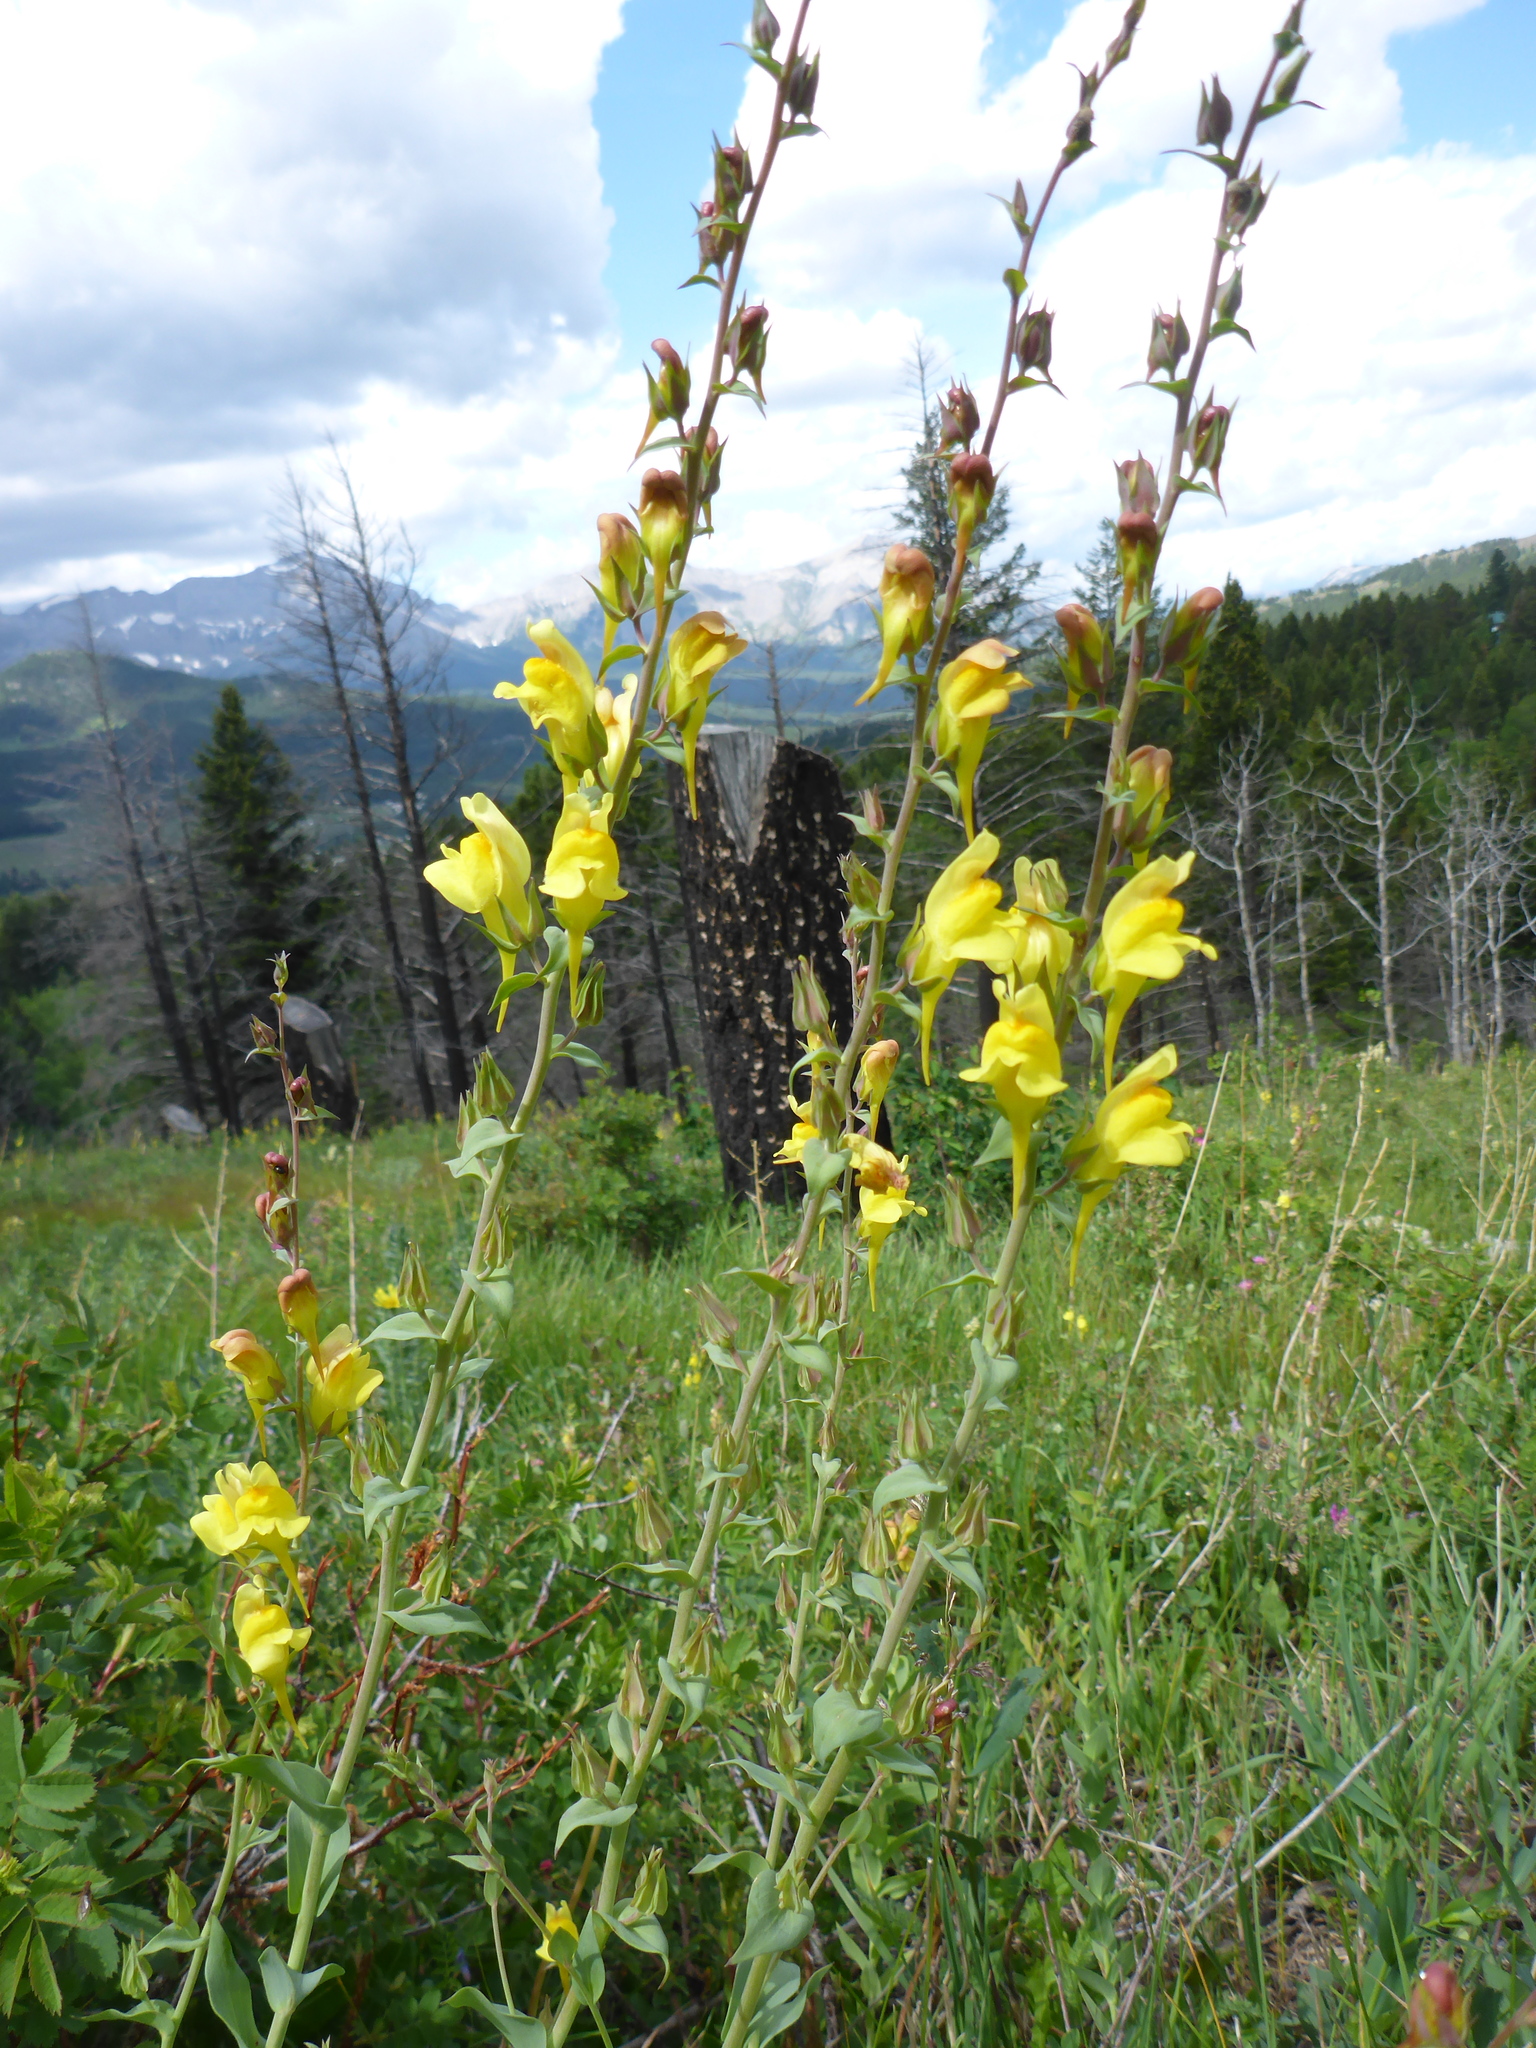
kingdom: Plantae
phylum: Tracheophyta
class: Magnoliopsida
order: Lamiales
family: Plantaginaceae
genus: Linaria
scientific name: Linaria dalmatica
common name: Dalmatian toadflax
